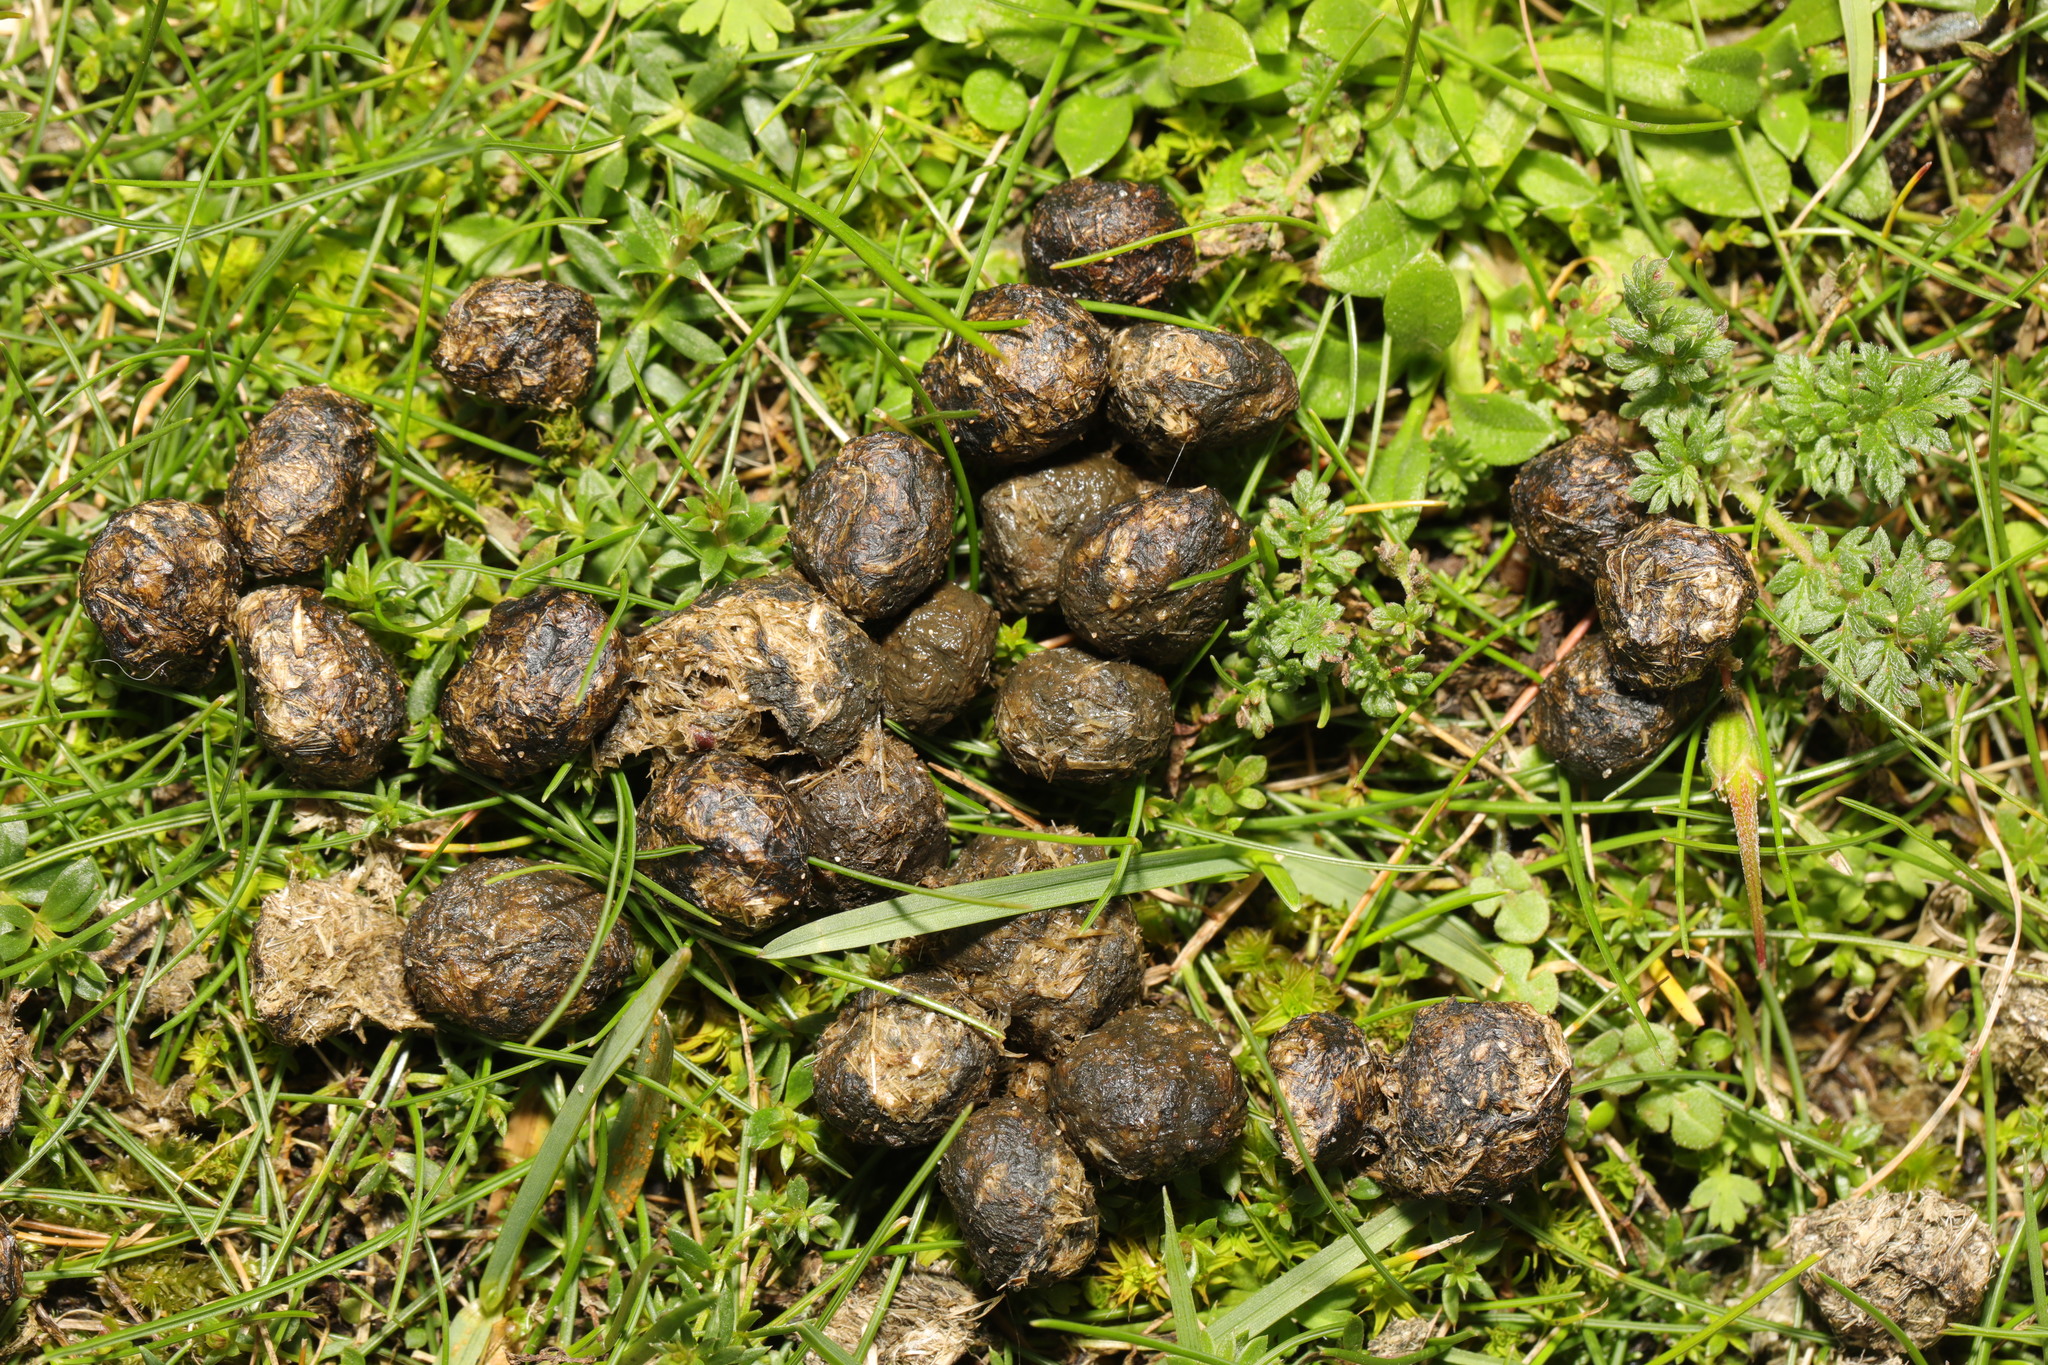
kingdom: Animalia
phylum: Chordata
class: Mammalia
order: Lagomorpha
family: Leporidae
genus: Oryctolagus
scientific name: Oryctolagus cuniculus
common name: European rabbit
